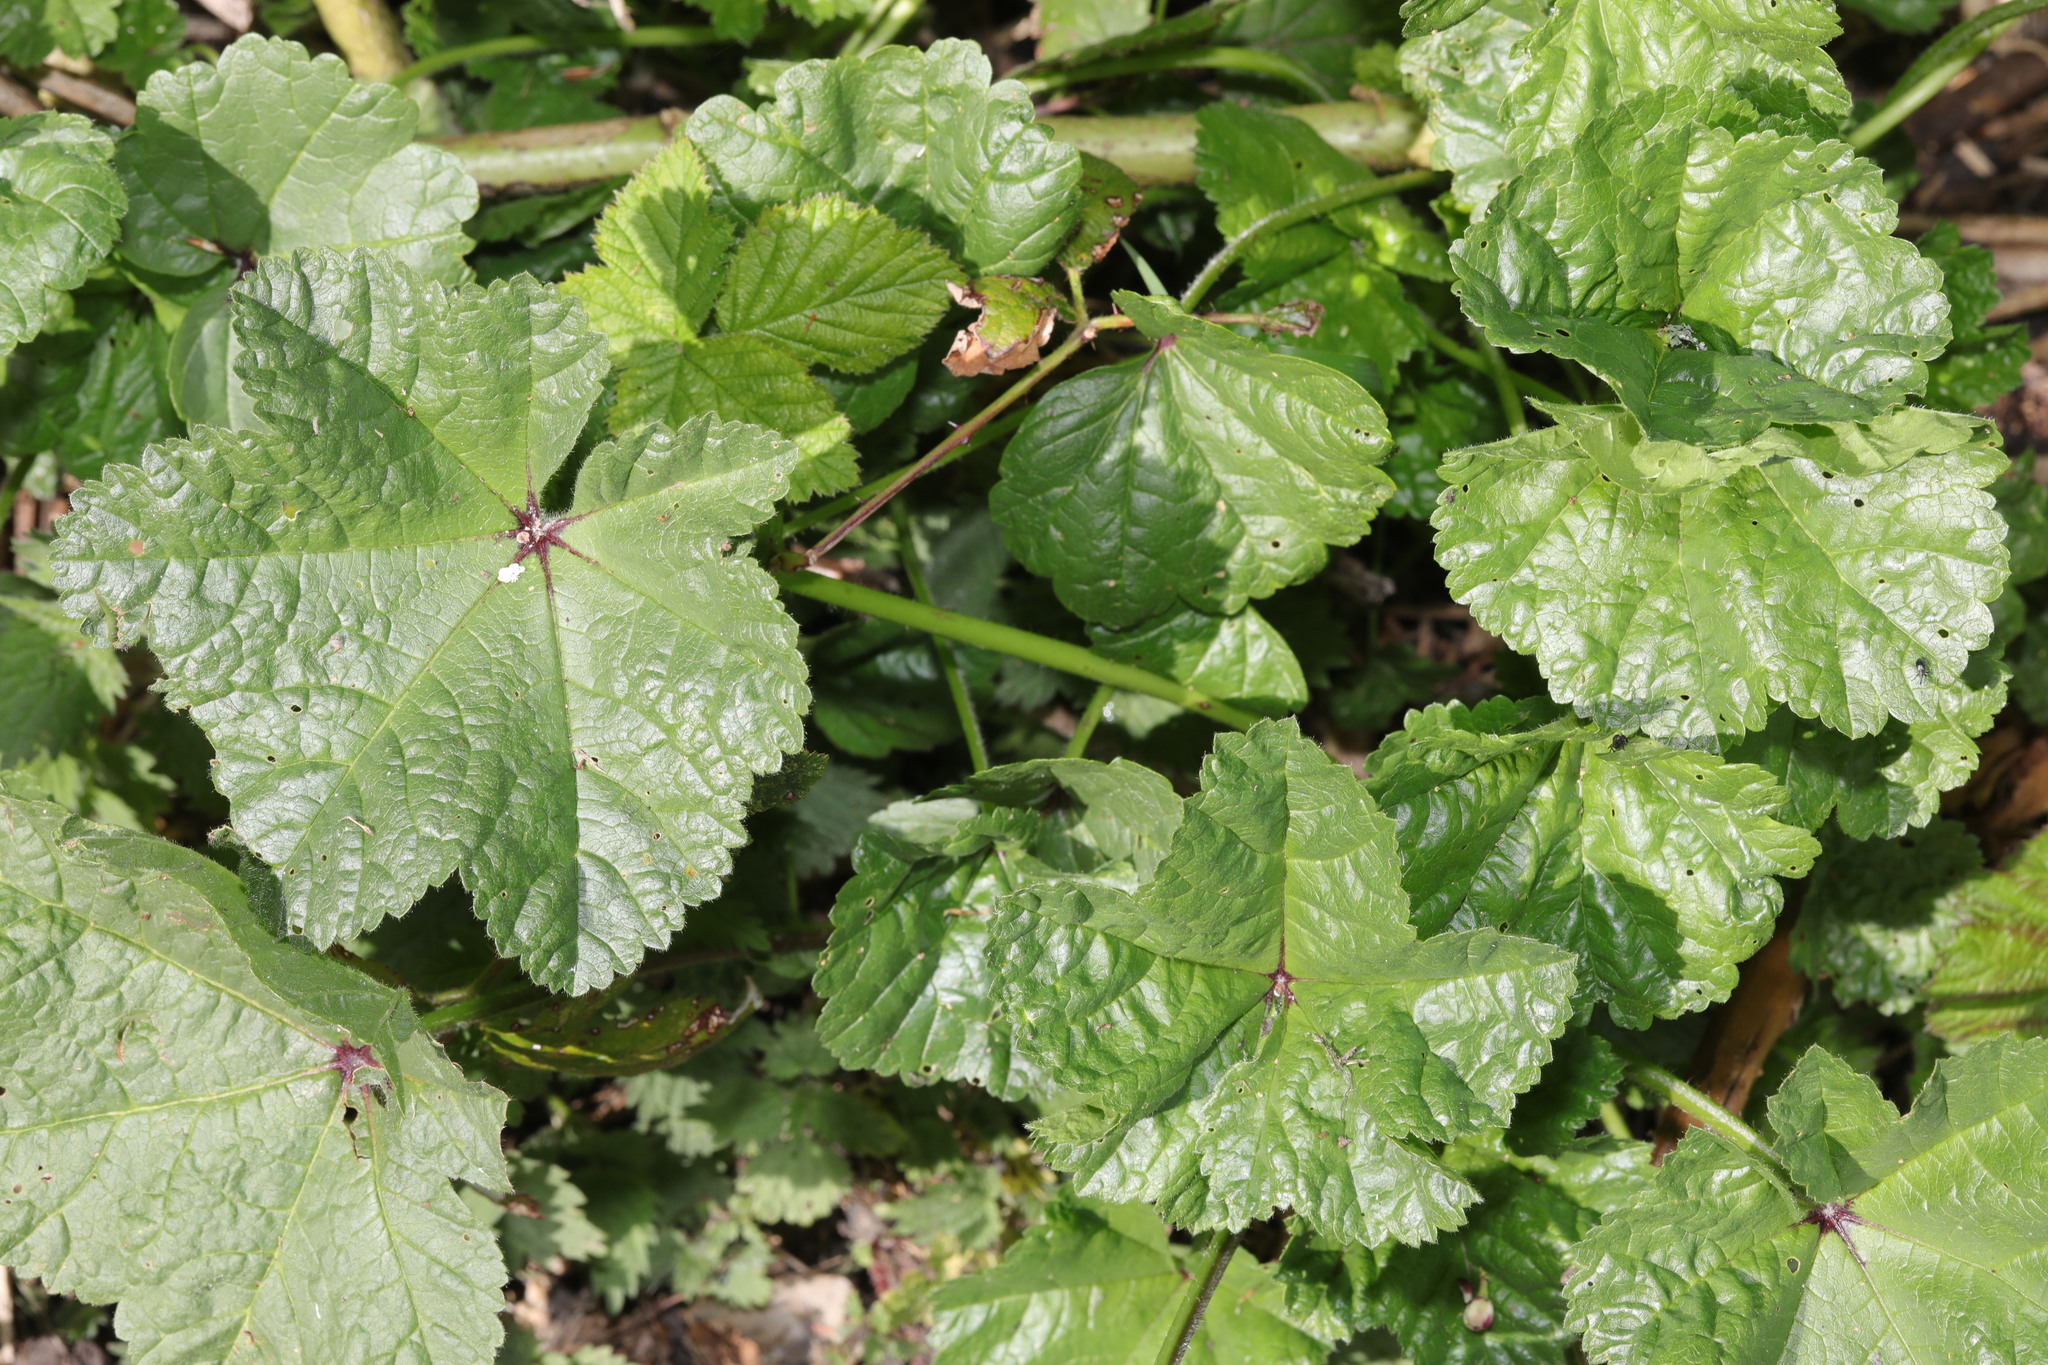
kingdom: Plantae
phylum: Tracheophyta
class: Magnoliopsida
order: Malvales
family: Malvaceae
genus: Malva
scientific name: Malva sylvestris
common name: Common mallow
